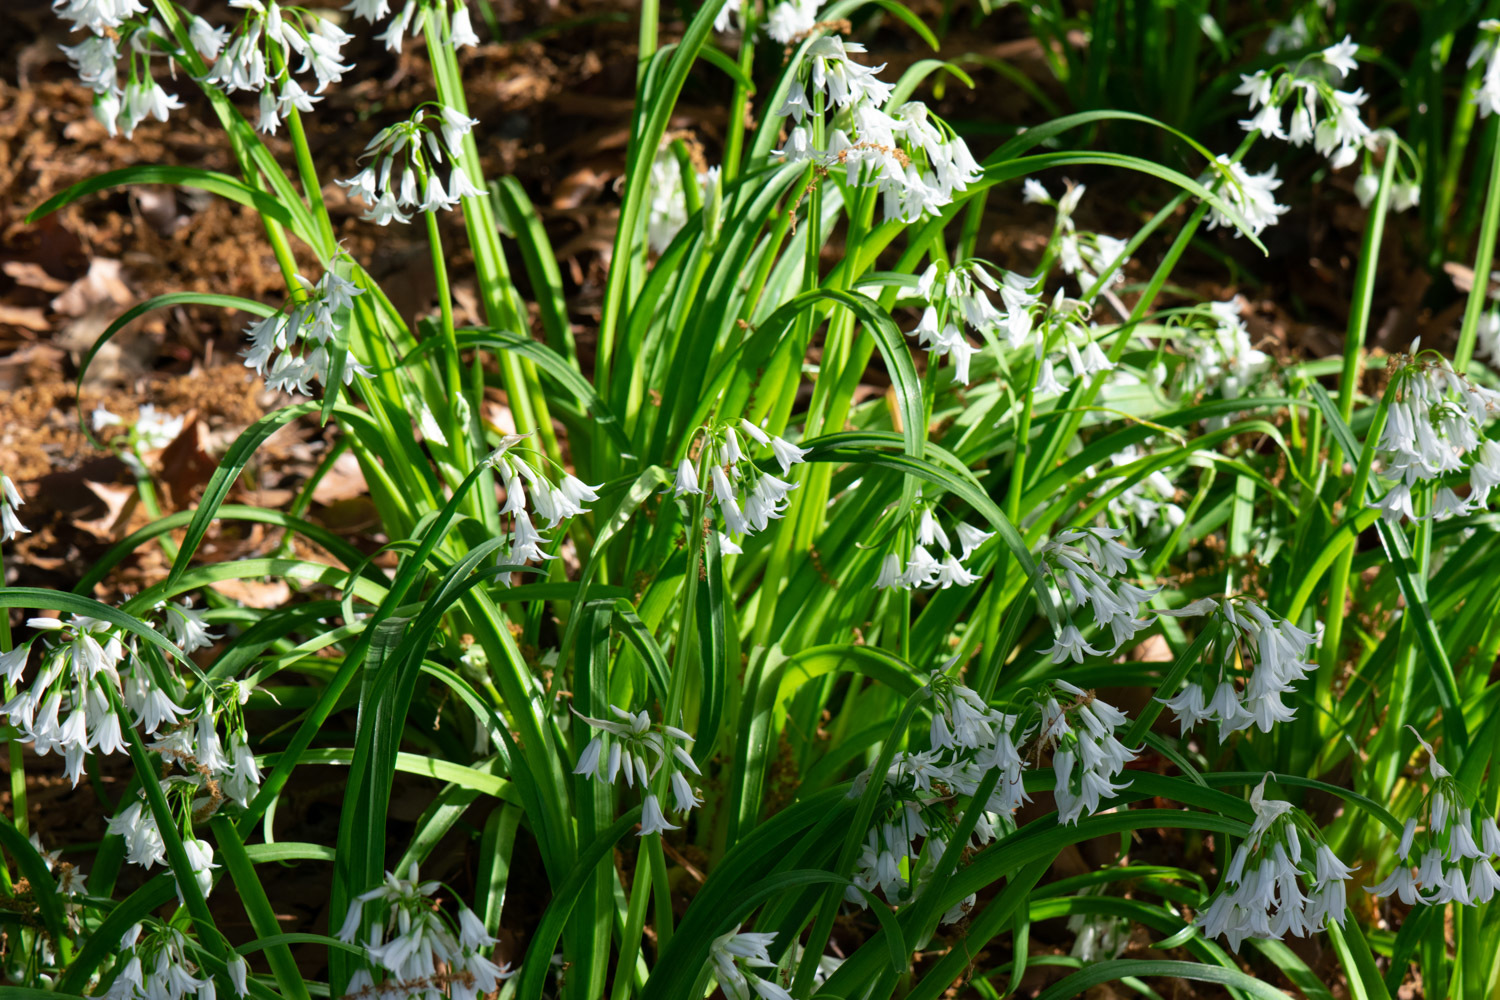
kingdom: Plantae
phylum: Tracheophyta
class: Liliopsida
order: Asparagales
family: Amaryllidaceae
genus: Allium
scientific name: Allium triquetrum
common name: Three-cornered garlic
